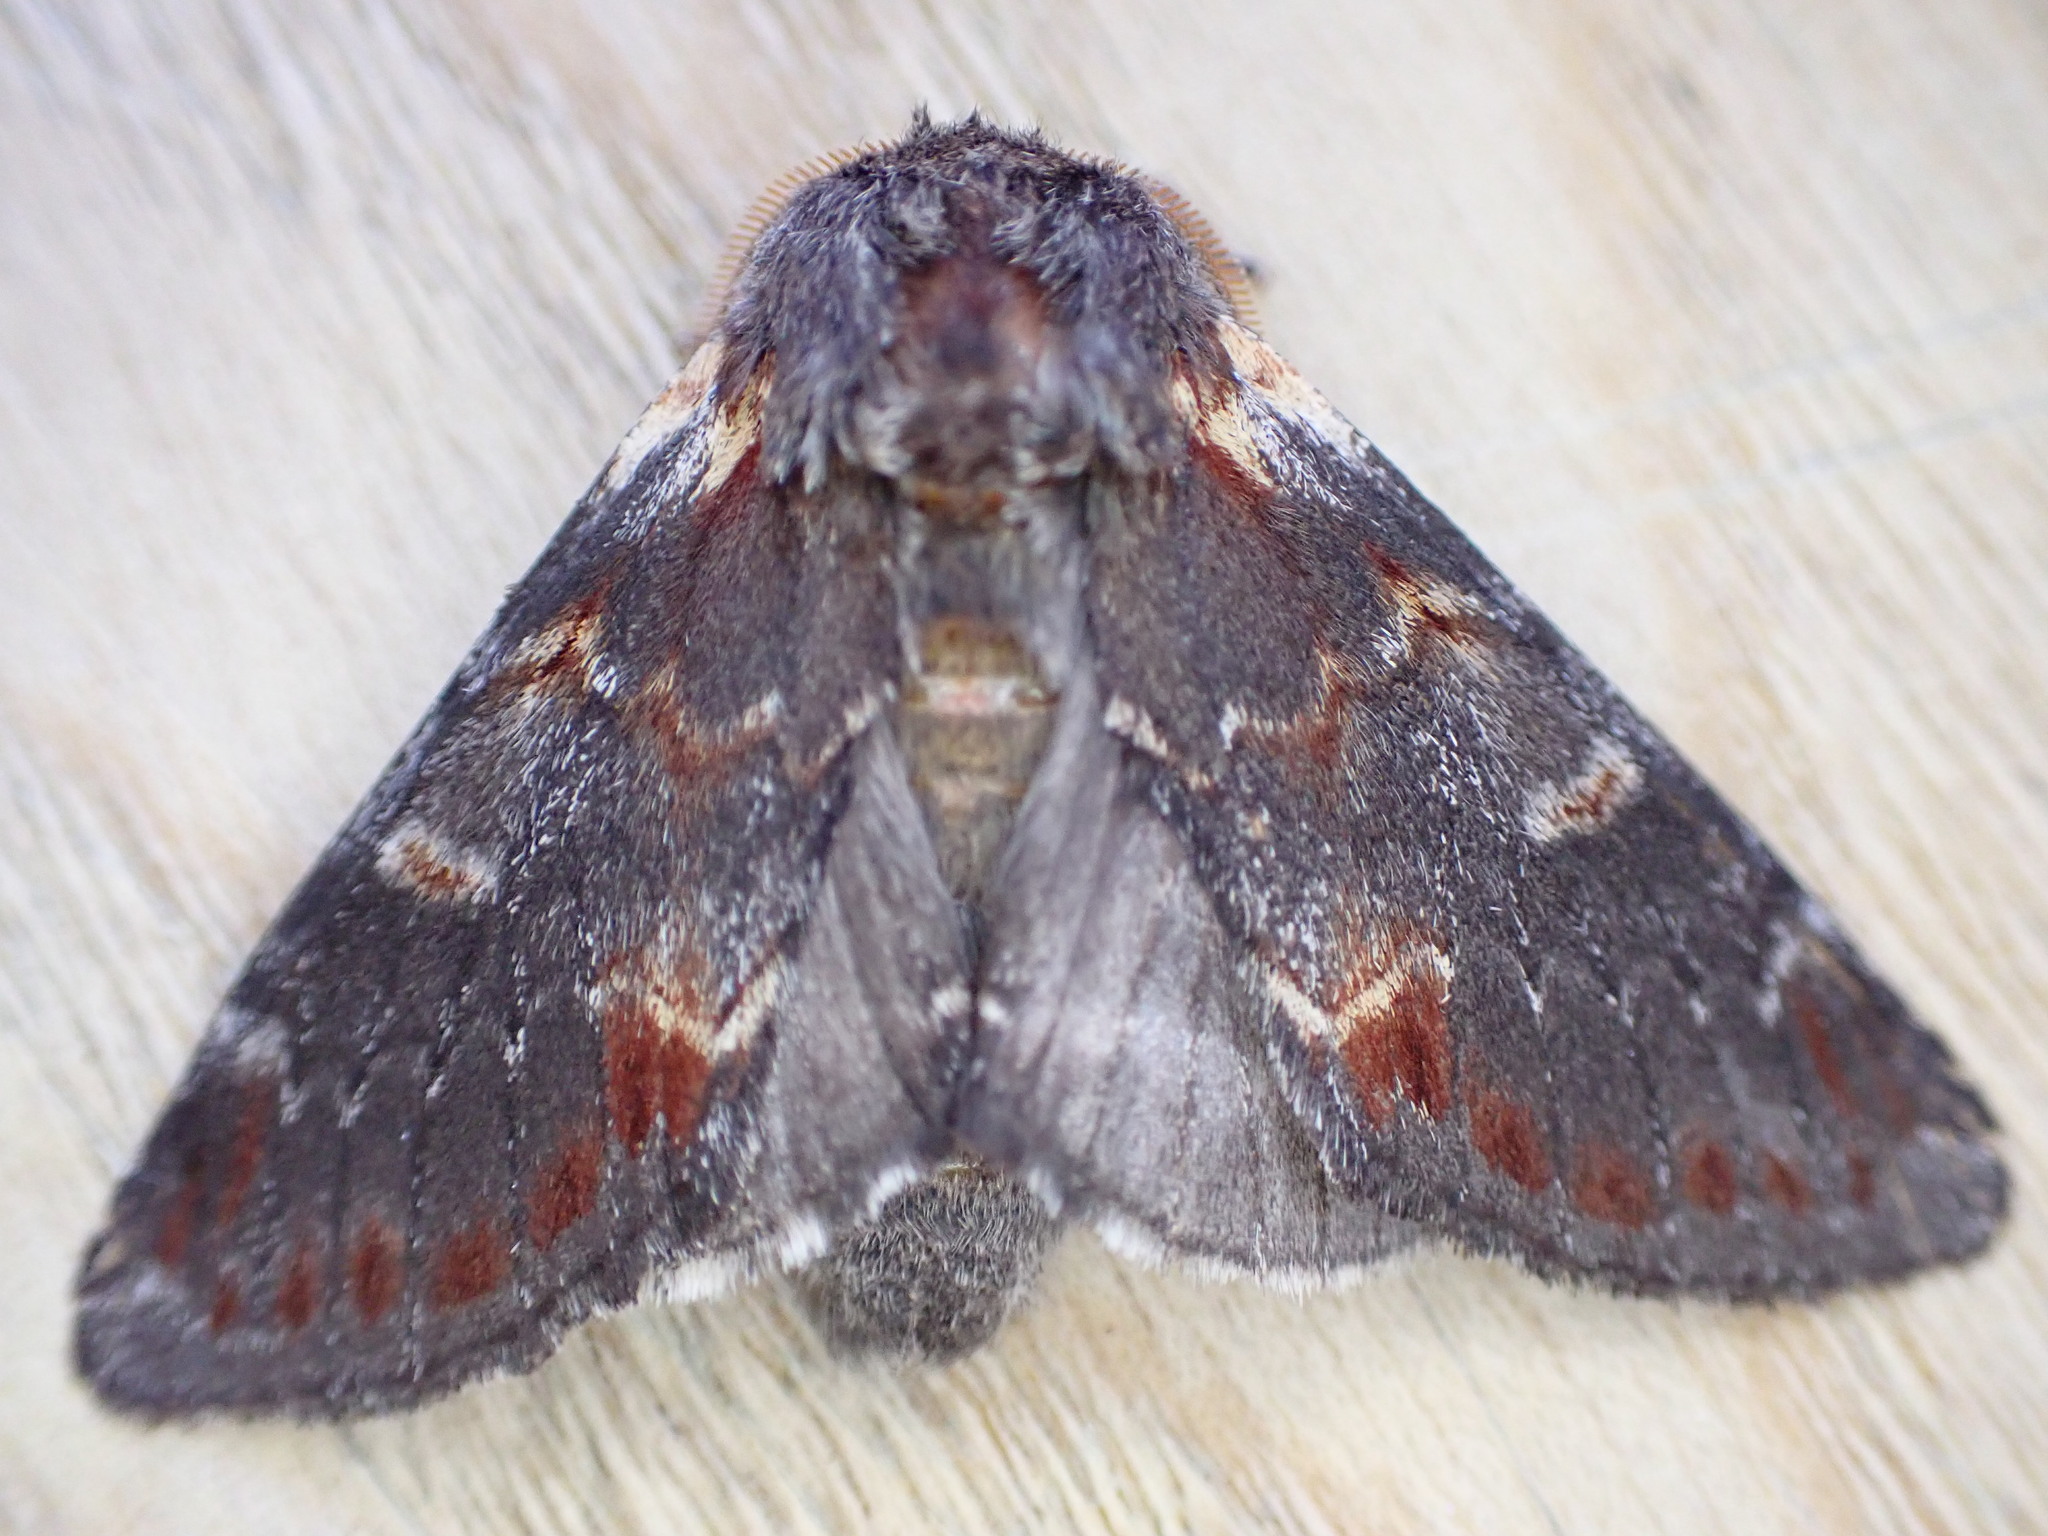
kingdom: Animalia
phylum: Arthropoda
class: Insecta
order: Lepidoptera
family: Notodontidae
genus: Notodonta
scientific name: Notodonta dromedarius
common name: Iron prominent
